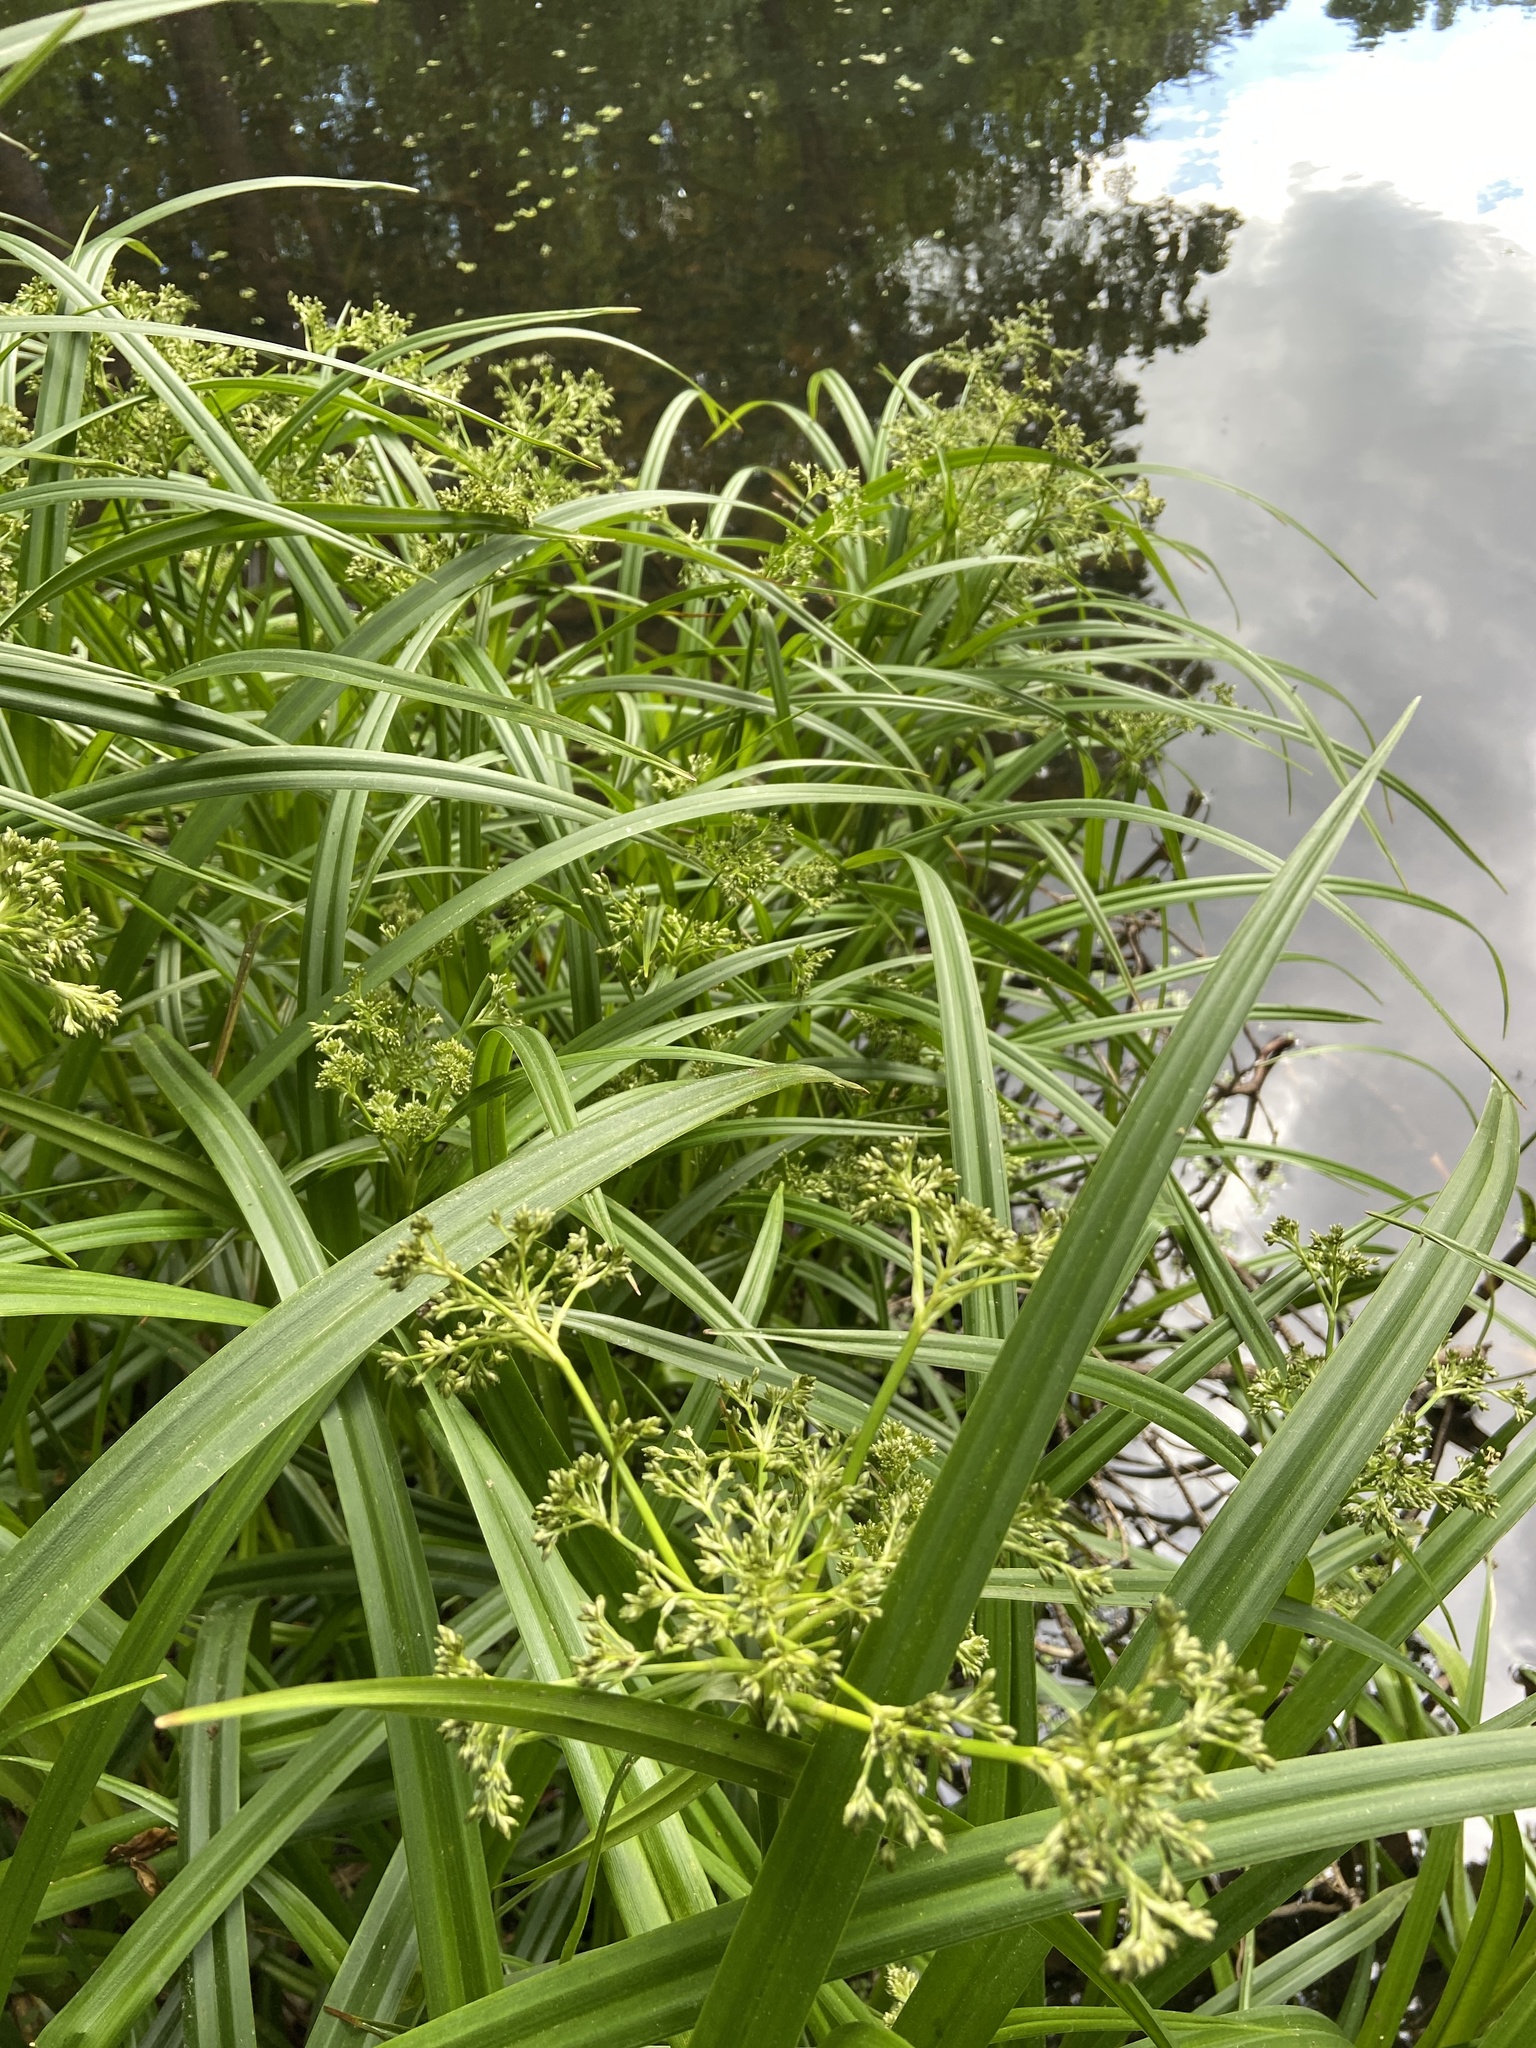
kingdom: Plantae
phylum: Tracheophyta
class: Liliopsida
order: Poales
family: Cyperaceae
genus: Scirpus
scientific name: Scirpus sylvaticus
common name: Wood club-rush
